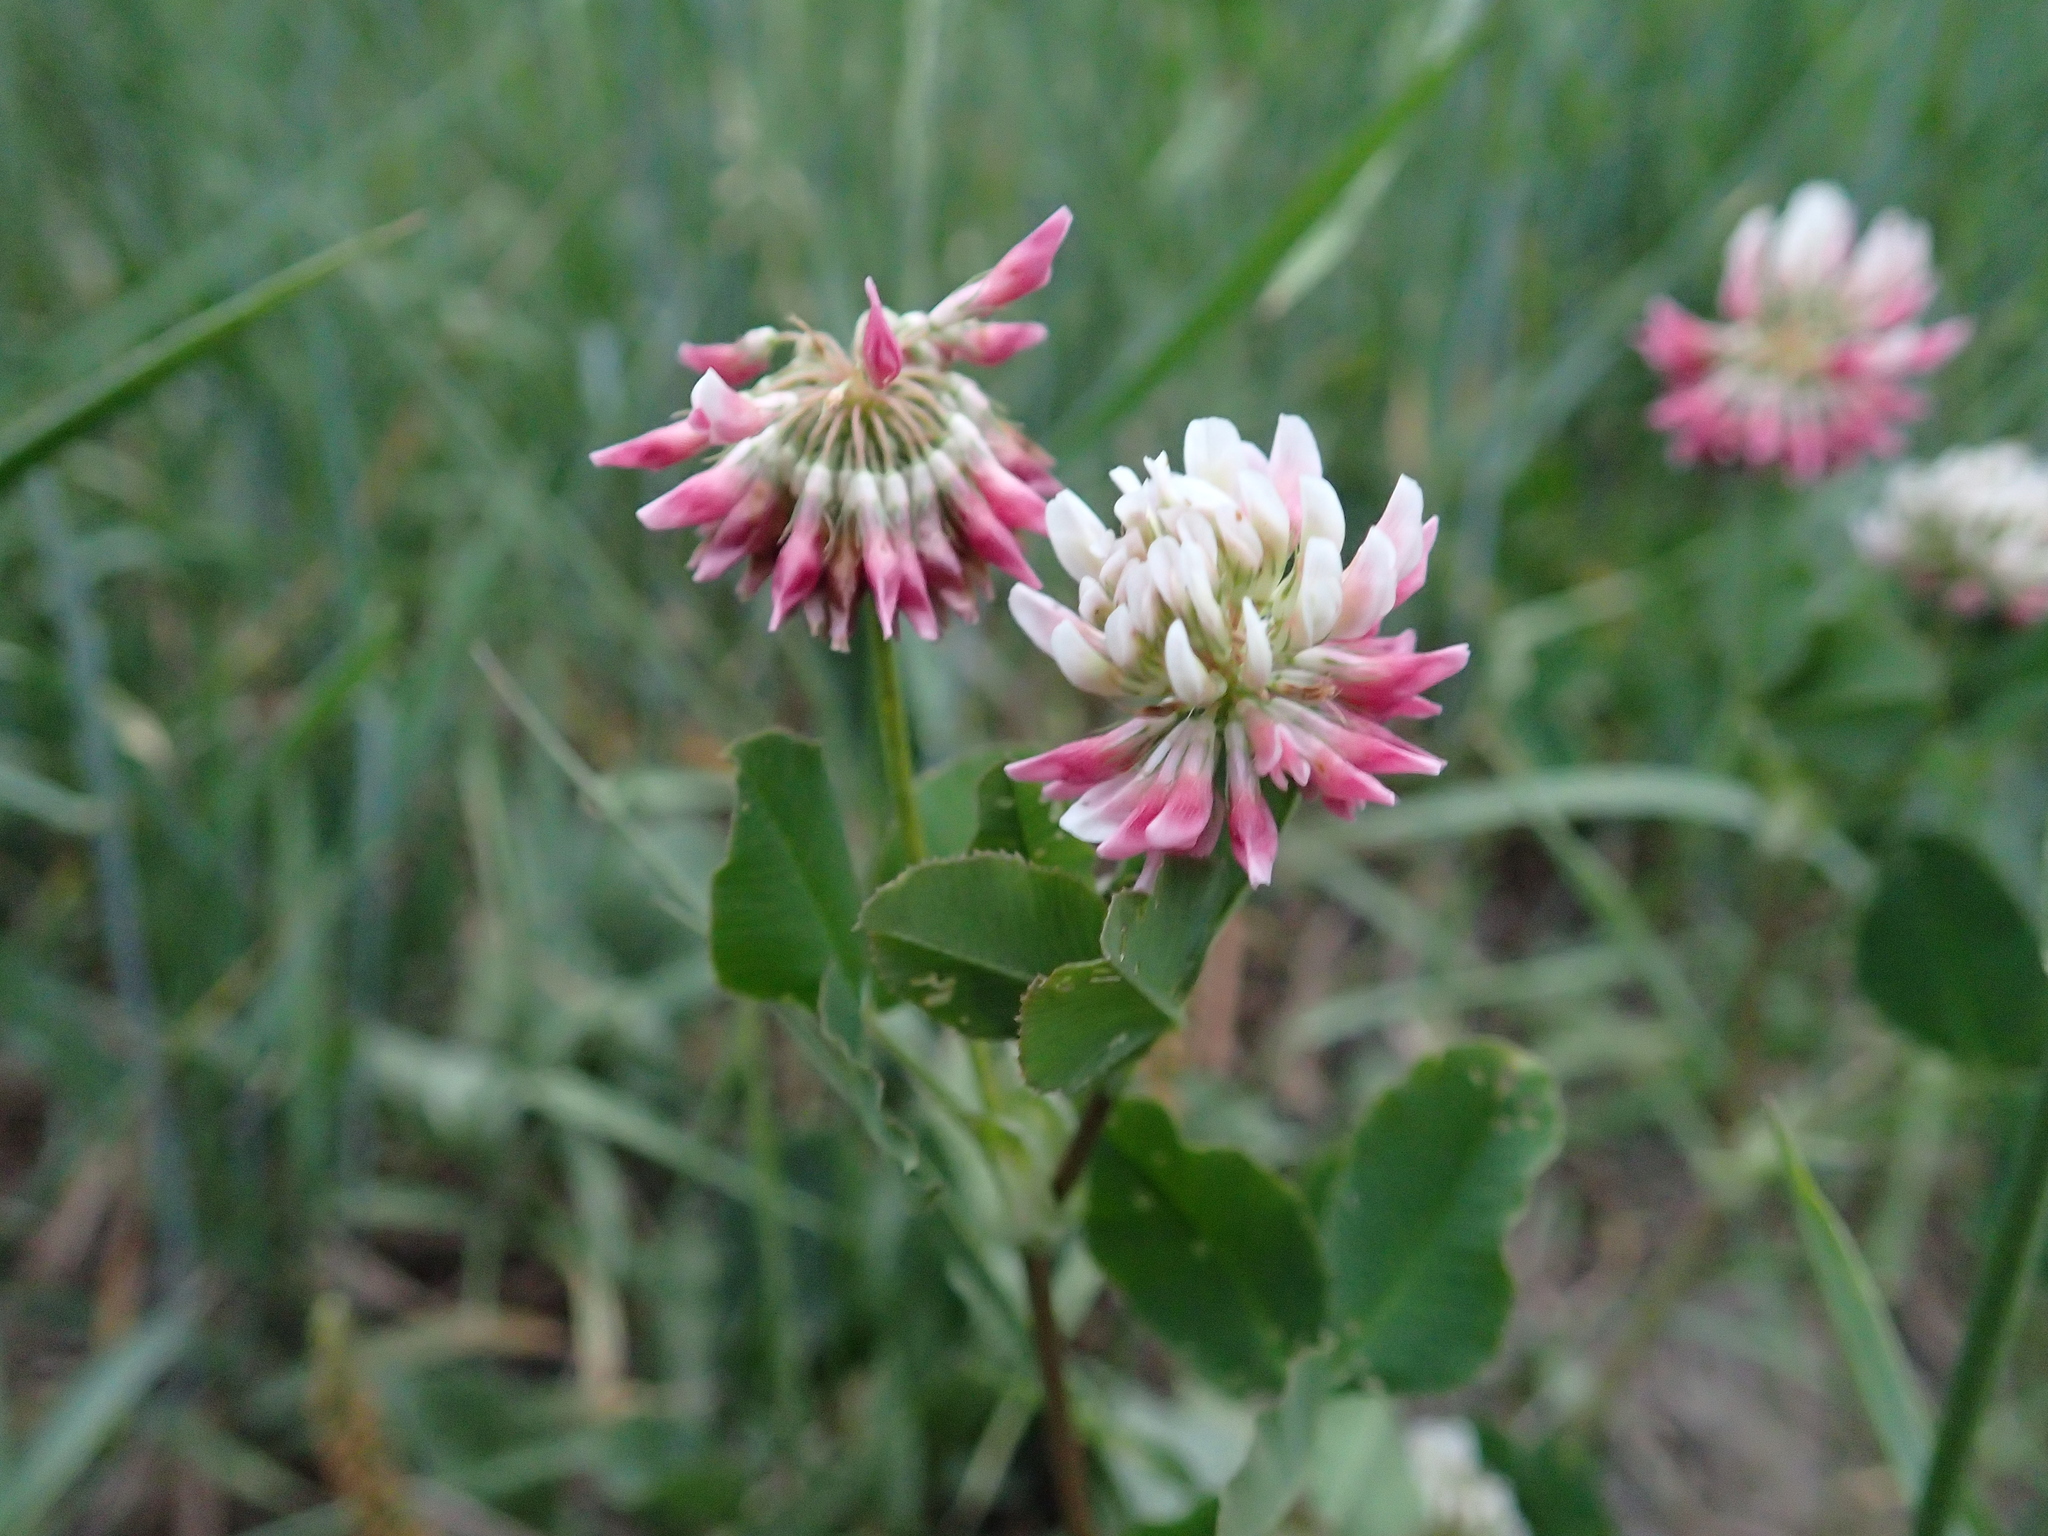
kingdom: Plantae
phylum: Tracheophyta
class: Magnoliopsida
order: Fabales
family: Fabaceae
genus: Trifolium
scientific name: Trifolium hybridum
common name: Alsike clover
